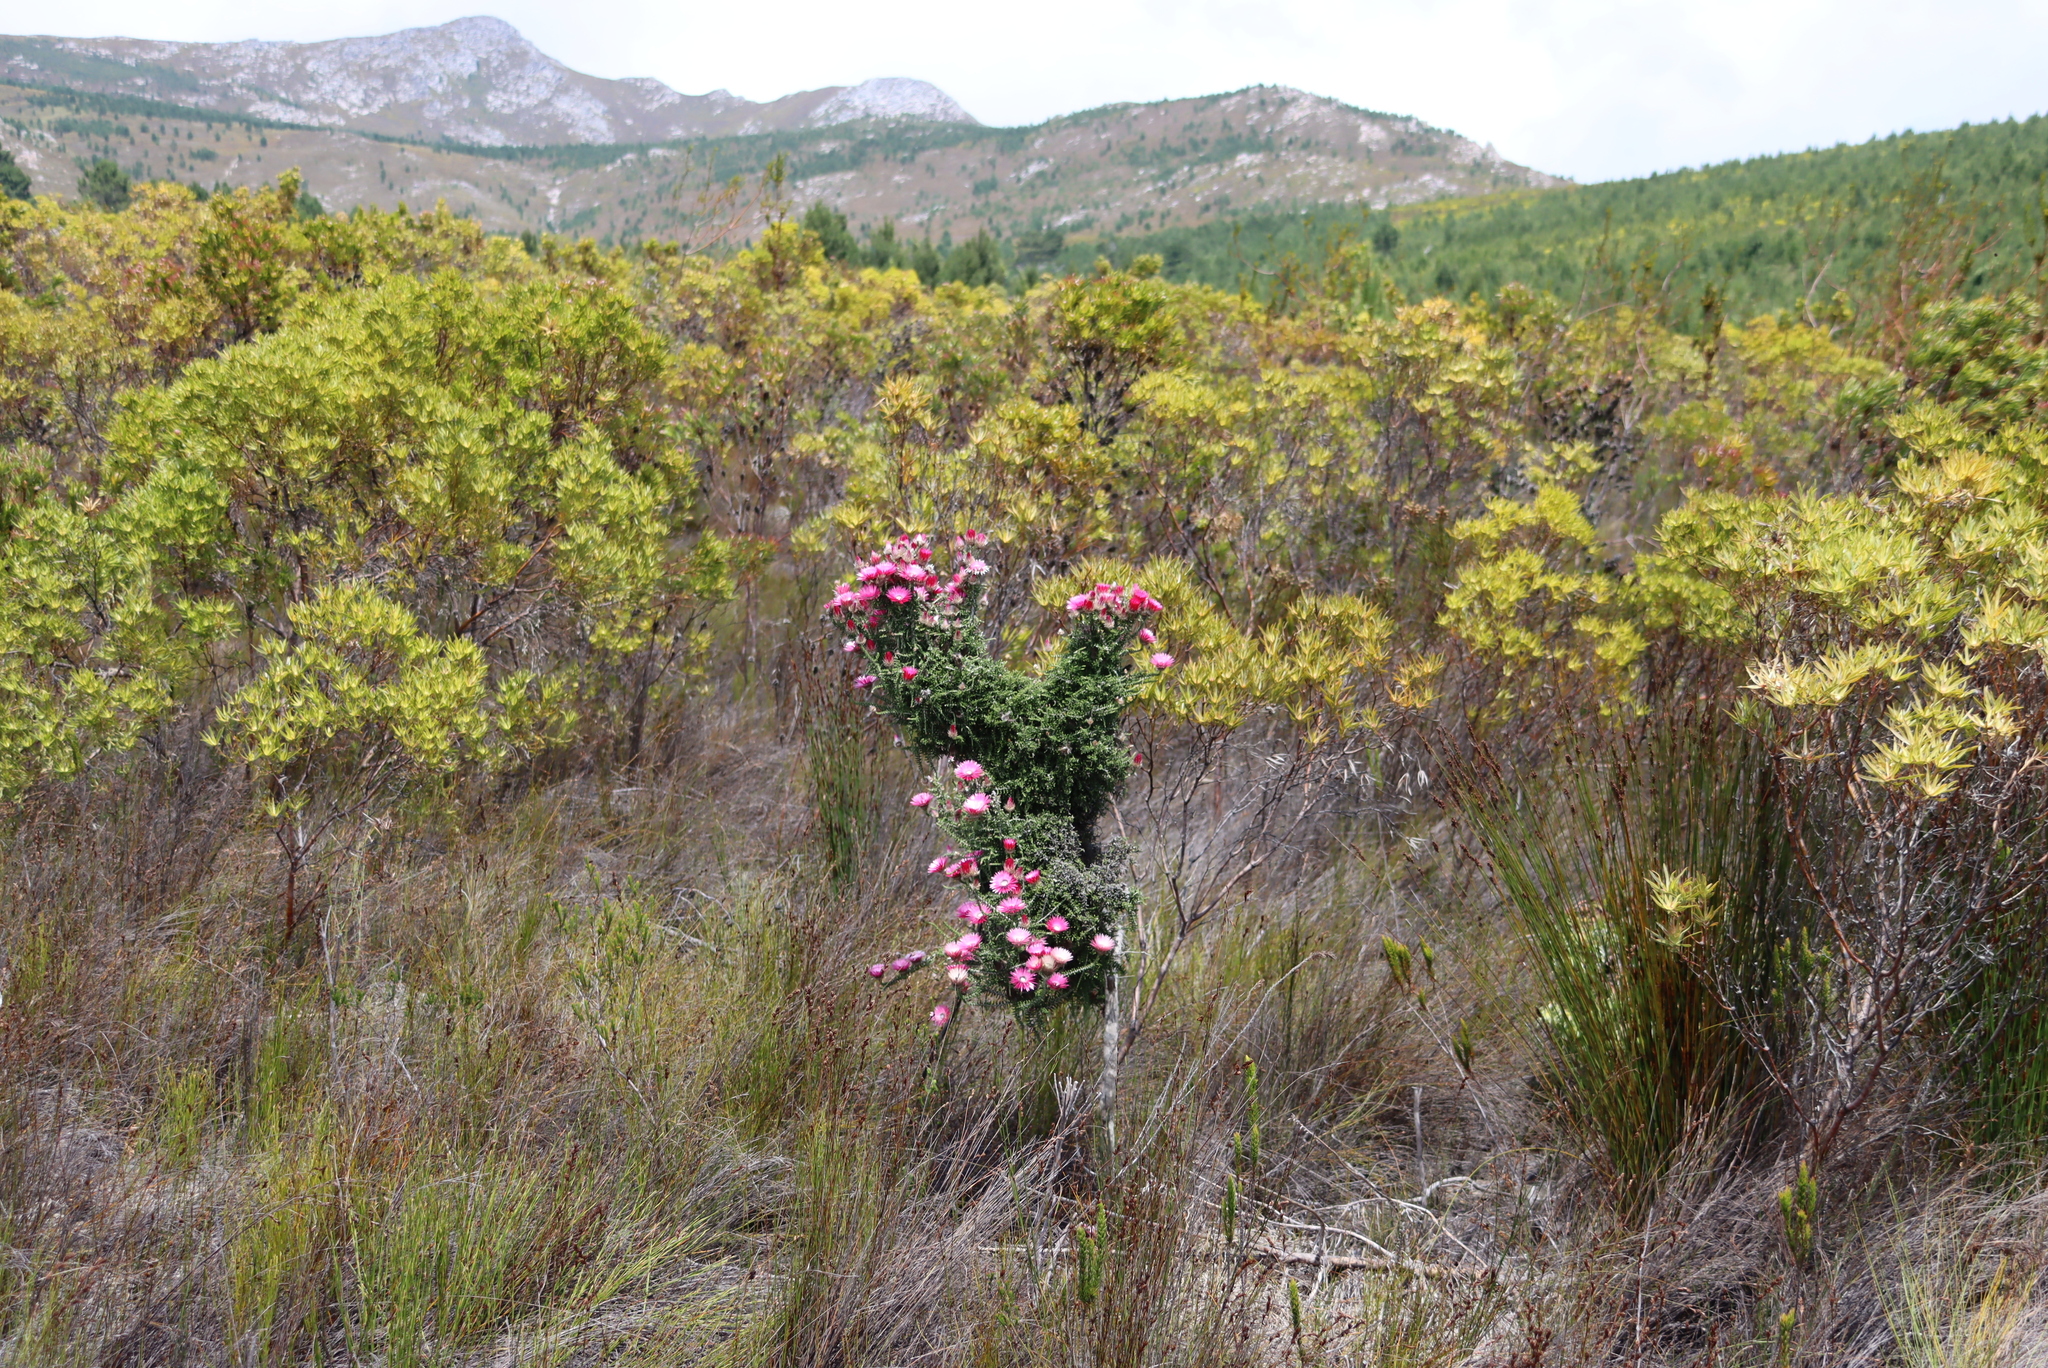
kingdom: Plantae
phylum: Tracheophyta
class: Magnoliopsida
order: Asterales
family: Asteraceae
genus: Phaenocoma
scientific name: Phaenocoma prolifera
